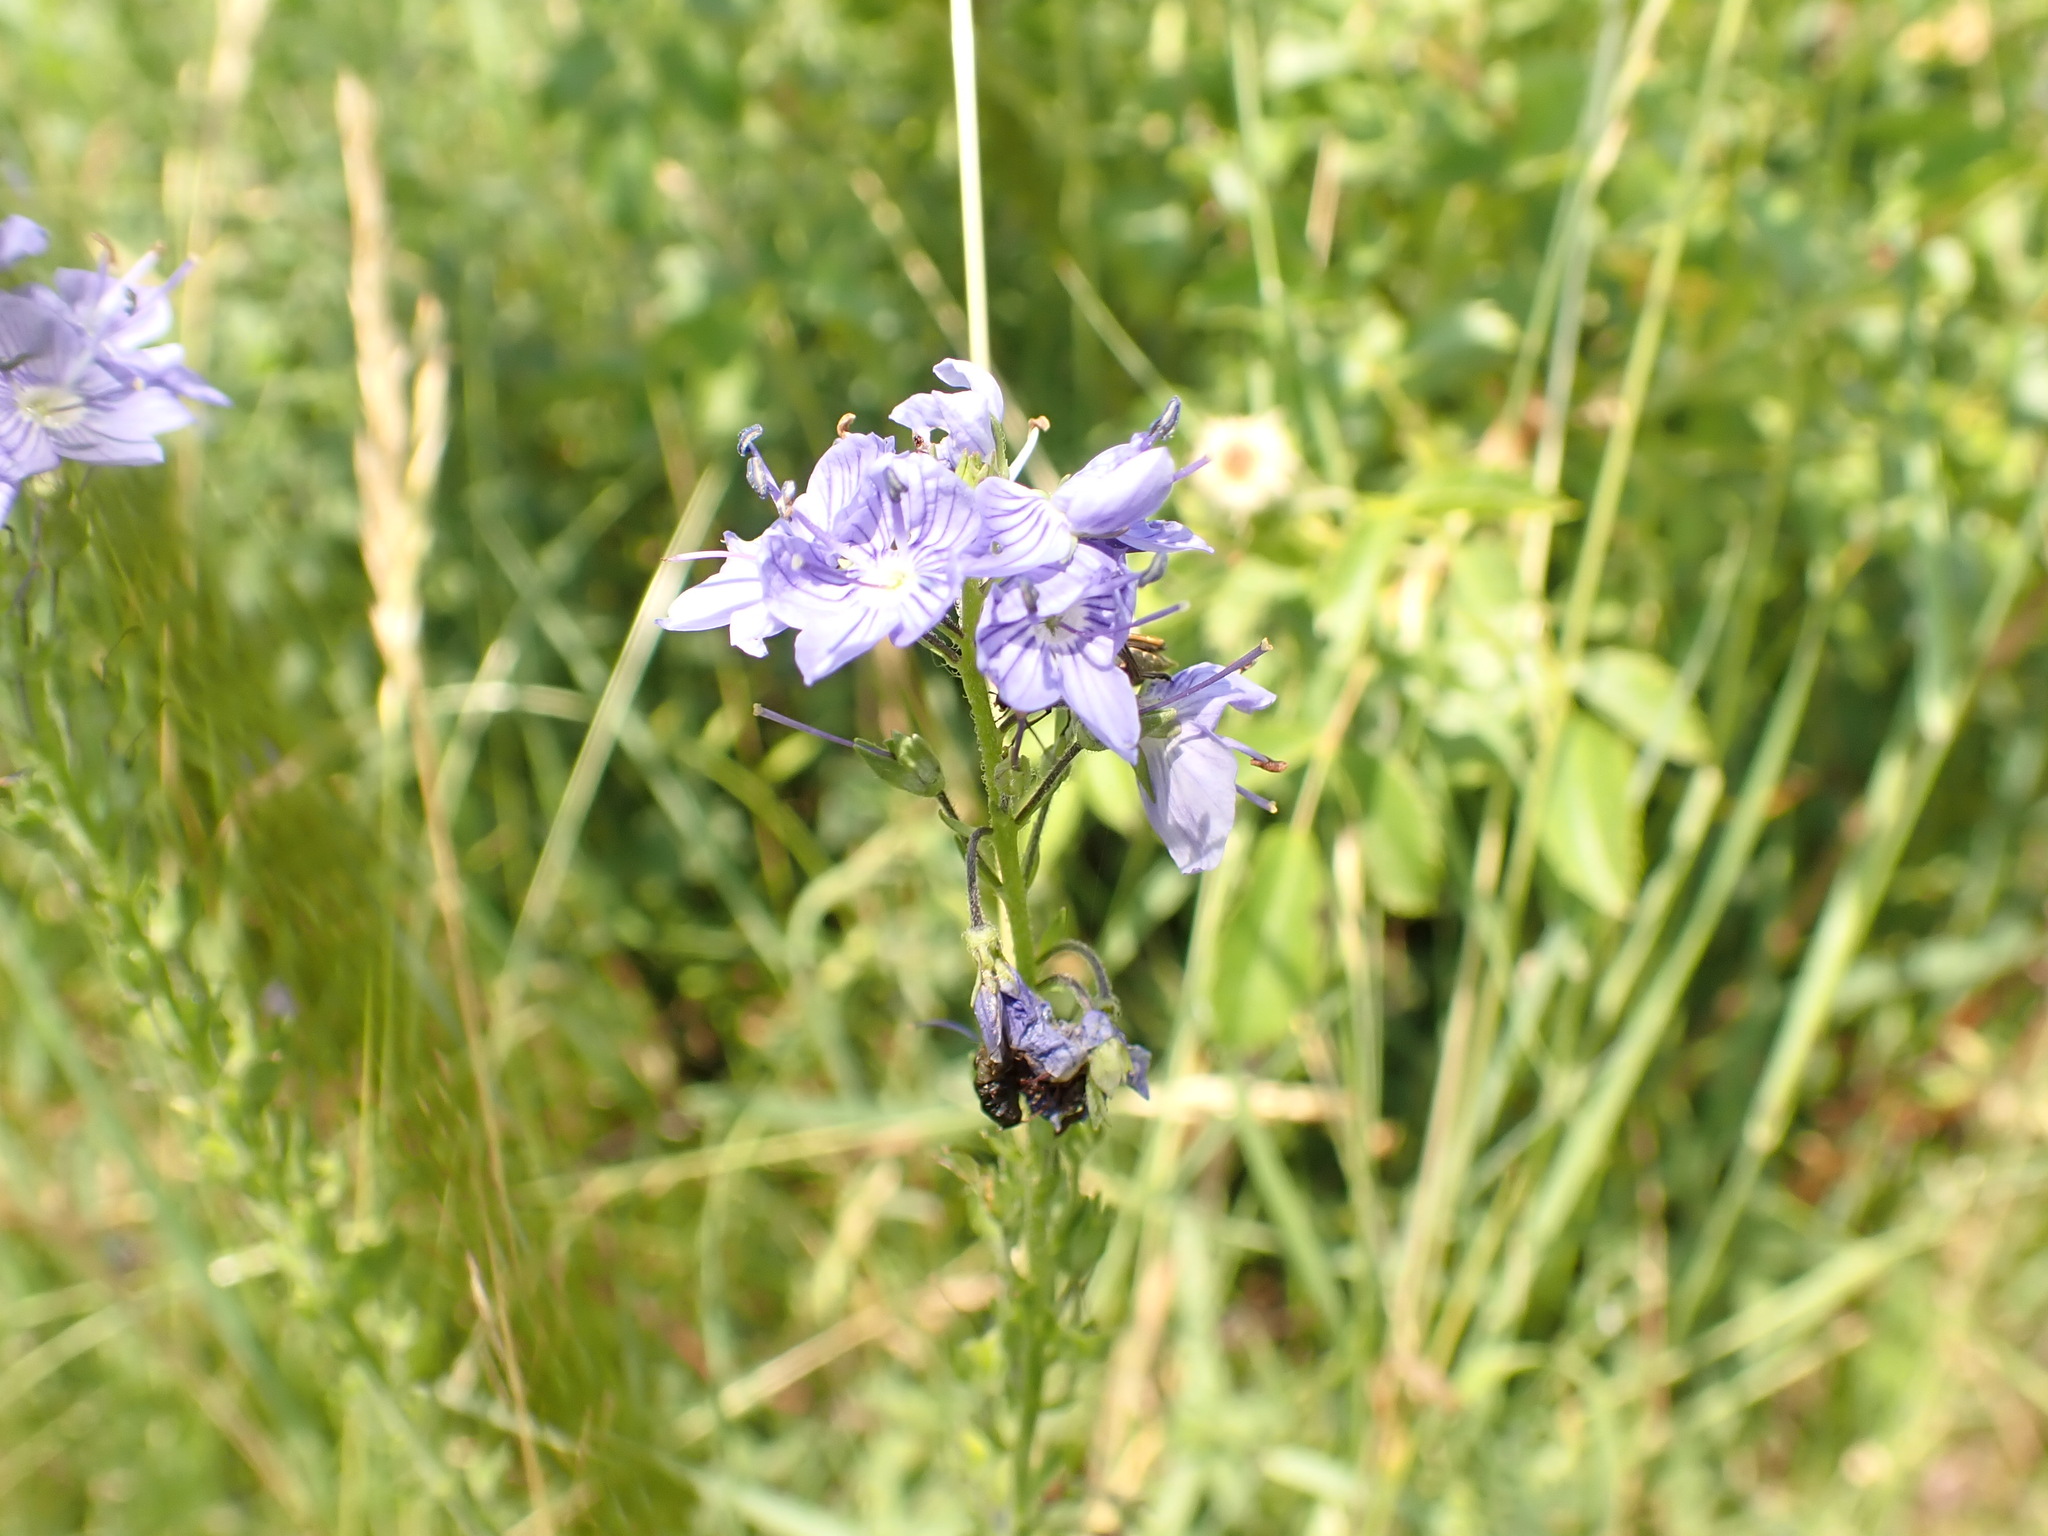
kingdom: Plantae
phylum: Tracheophyta
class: Magnoliopsida
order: Lamiales
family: Plantaginaceae
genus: Veronica
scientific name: Veronica teucrium
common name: Large speedwell
